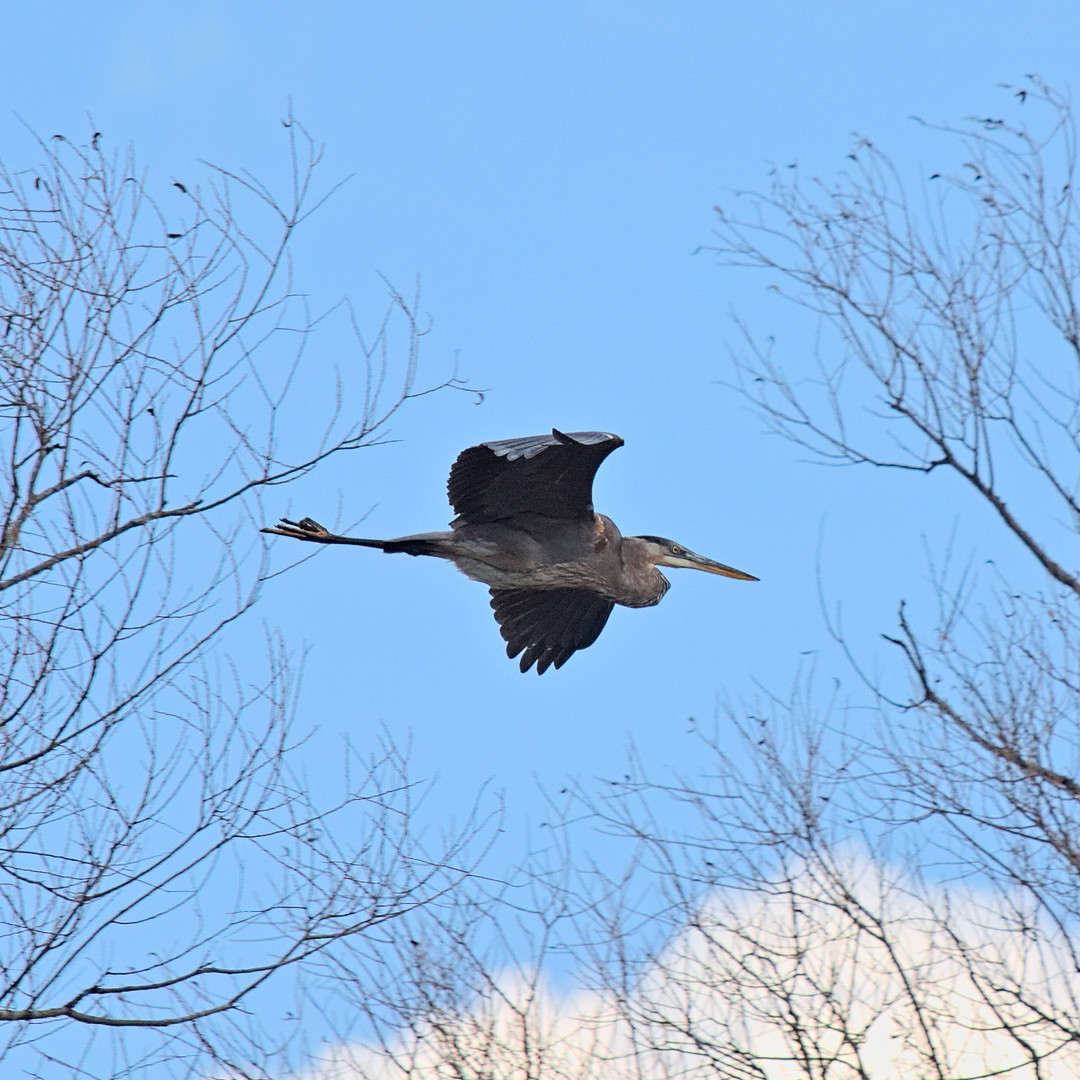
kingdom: Animalia
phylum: Chordata
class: Aves
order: Pelecaniformes
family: Ardeidae
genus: Ardea
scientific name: Ardea herodias
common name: Great blue heron
